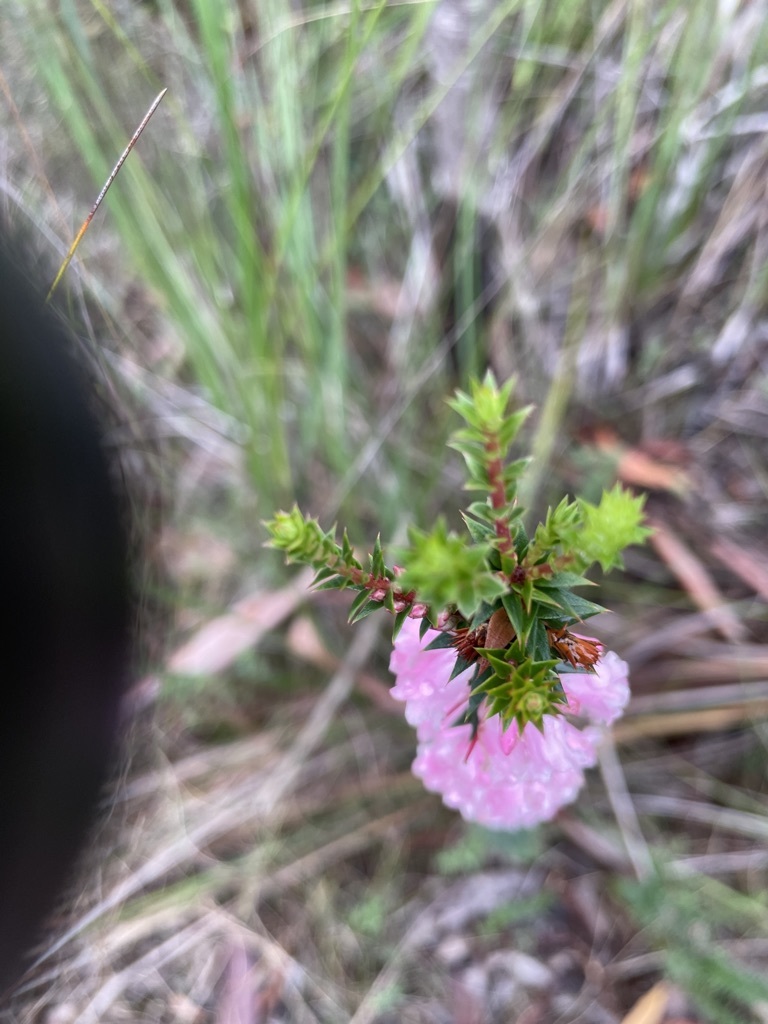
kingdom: Plantae
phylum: Tracheophyta
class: Magnoliopsida
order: Ericales
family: Ericaceae
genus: Epacris
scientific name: Epacris impressa
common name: Common-heath
